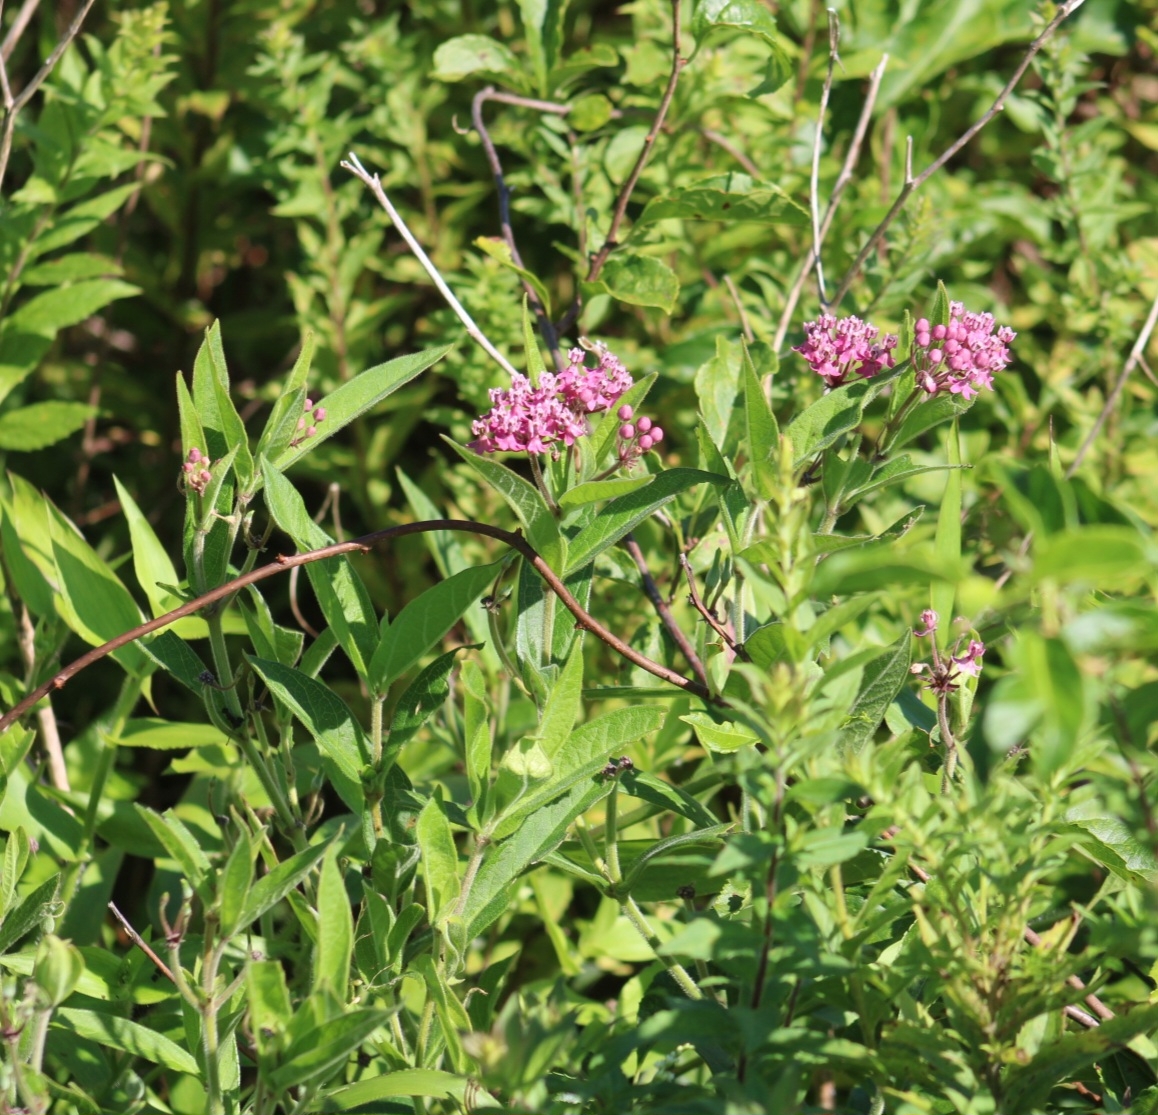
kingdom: Plantae
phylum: Tracheophyta
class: Magnoliopsida
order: Gentianales
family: Apocynaceae
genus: Asclepias
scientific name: Asclepias incarnata
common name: Swamp milkweed
